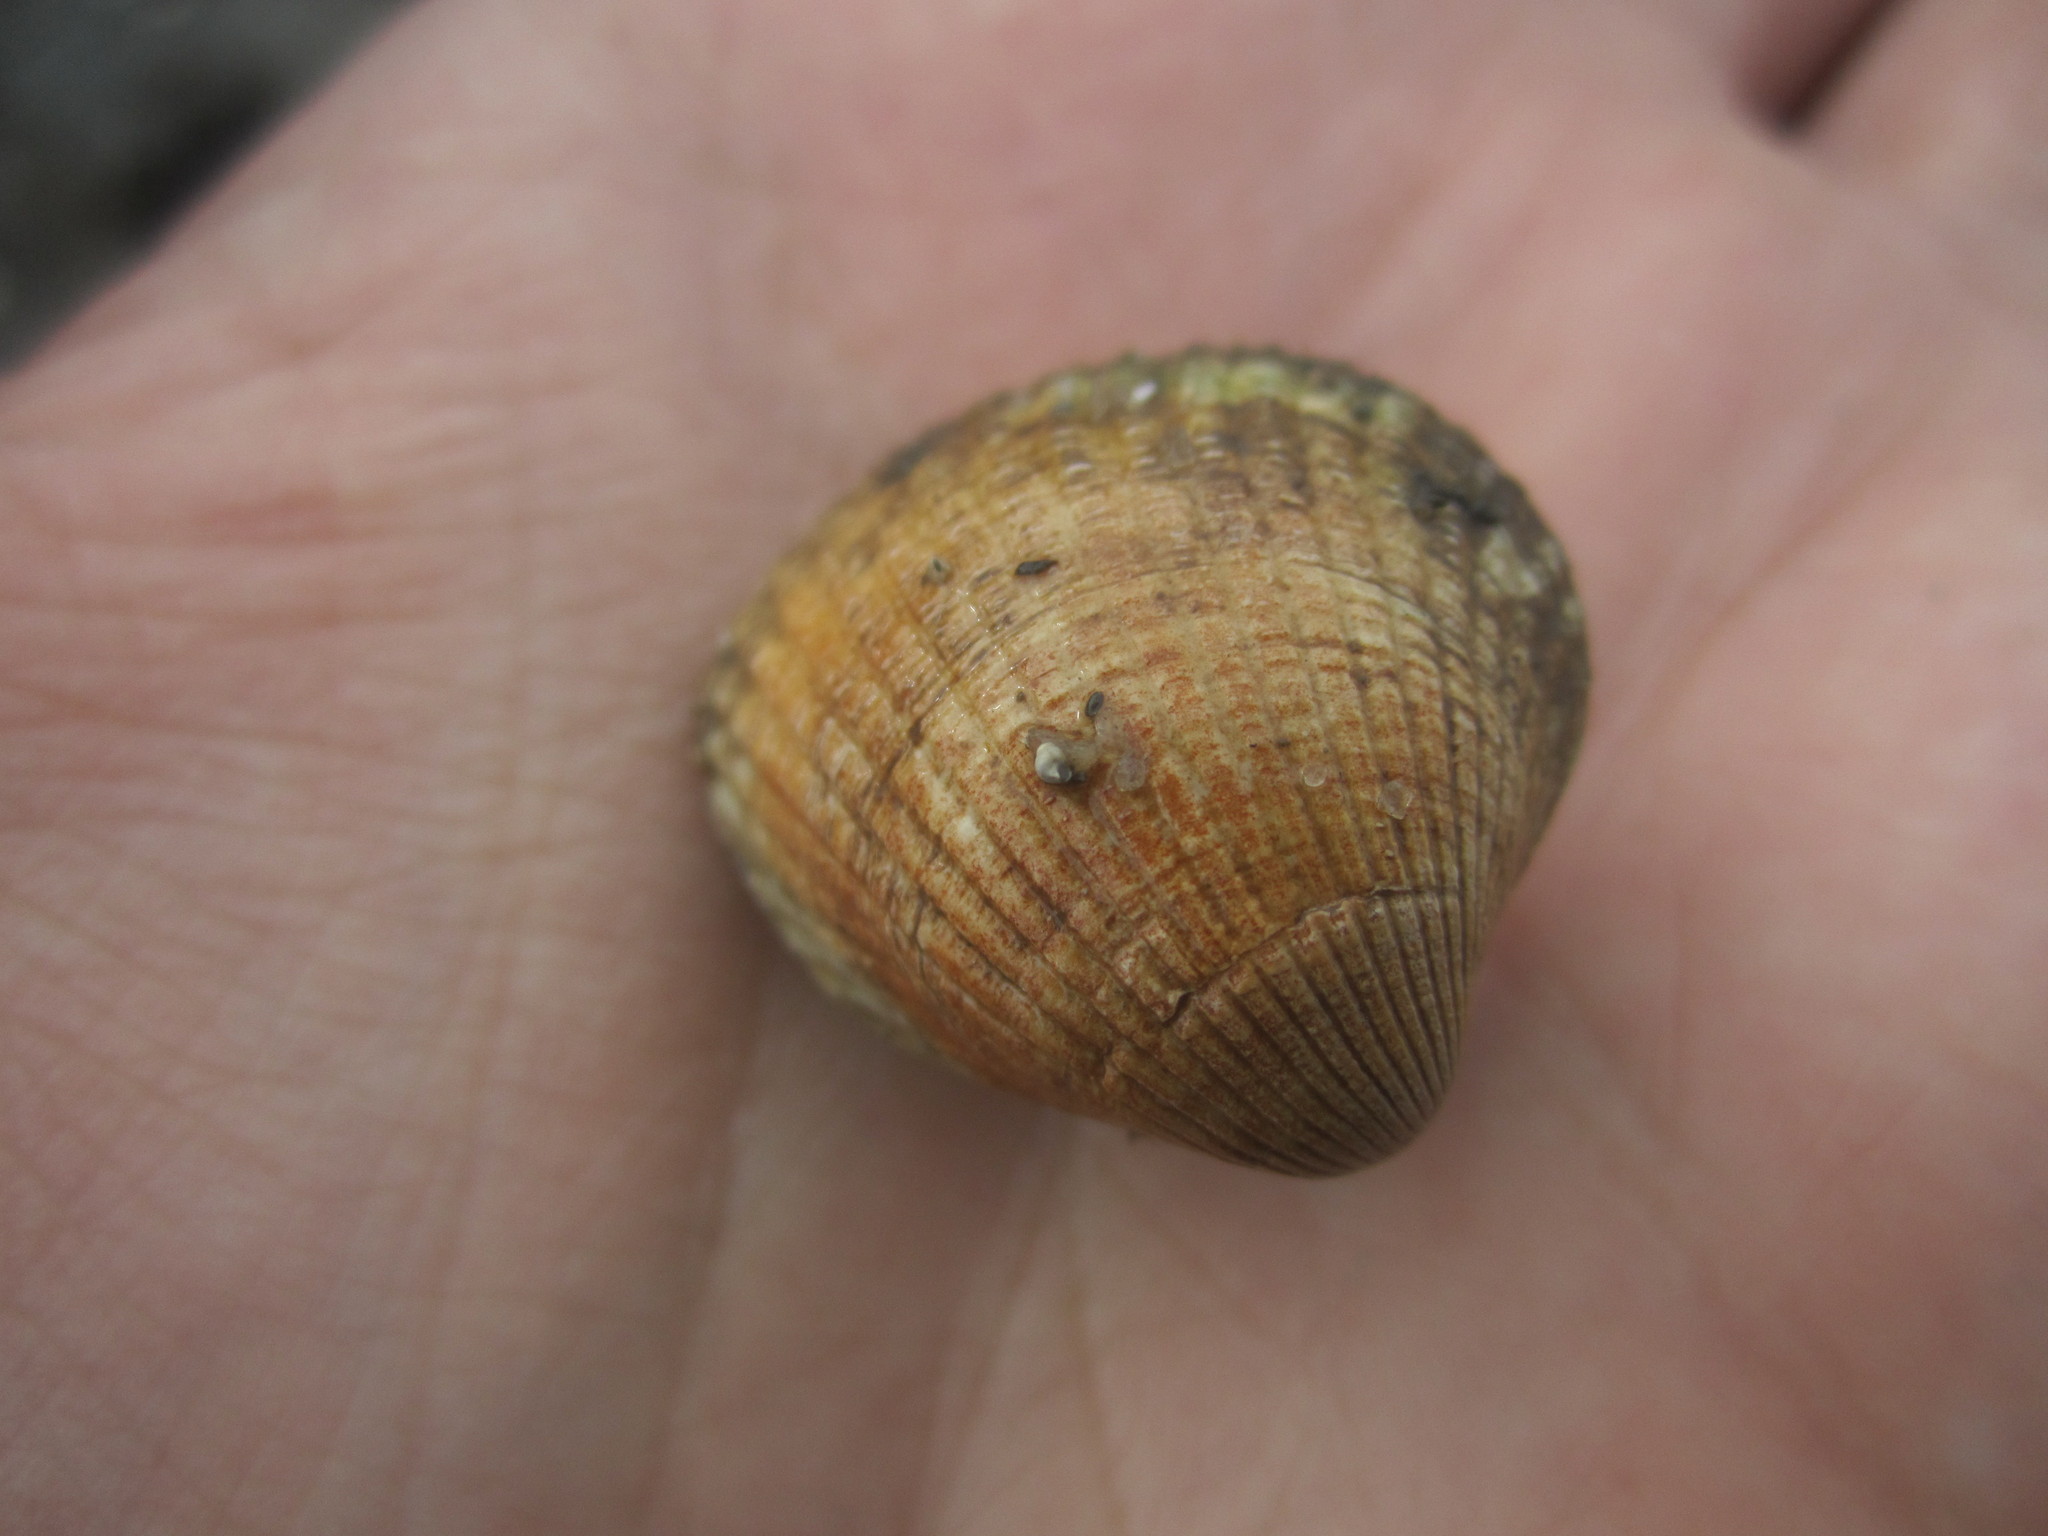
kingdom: Animalia
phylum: Mollusca
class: Bivalvia
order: Cardiida
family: Cardiidae
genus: Cerastoderma
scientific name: Cerastoderma edule
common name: Common cockle
